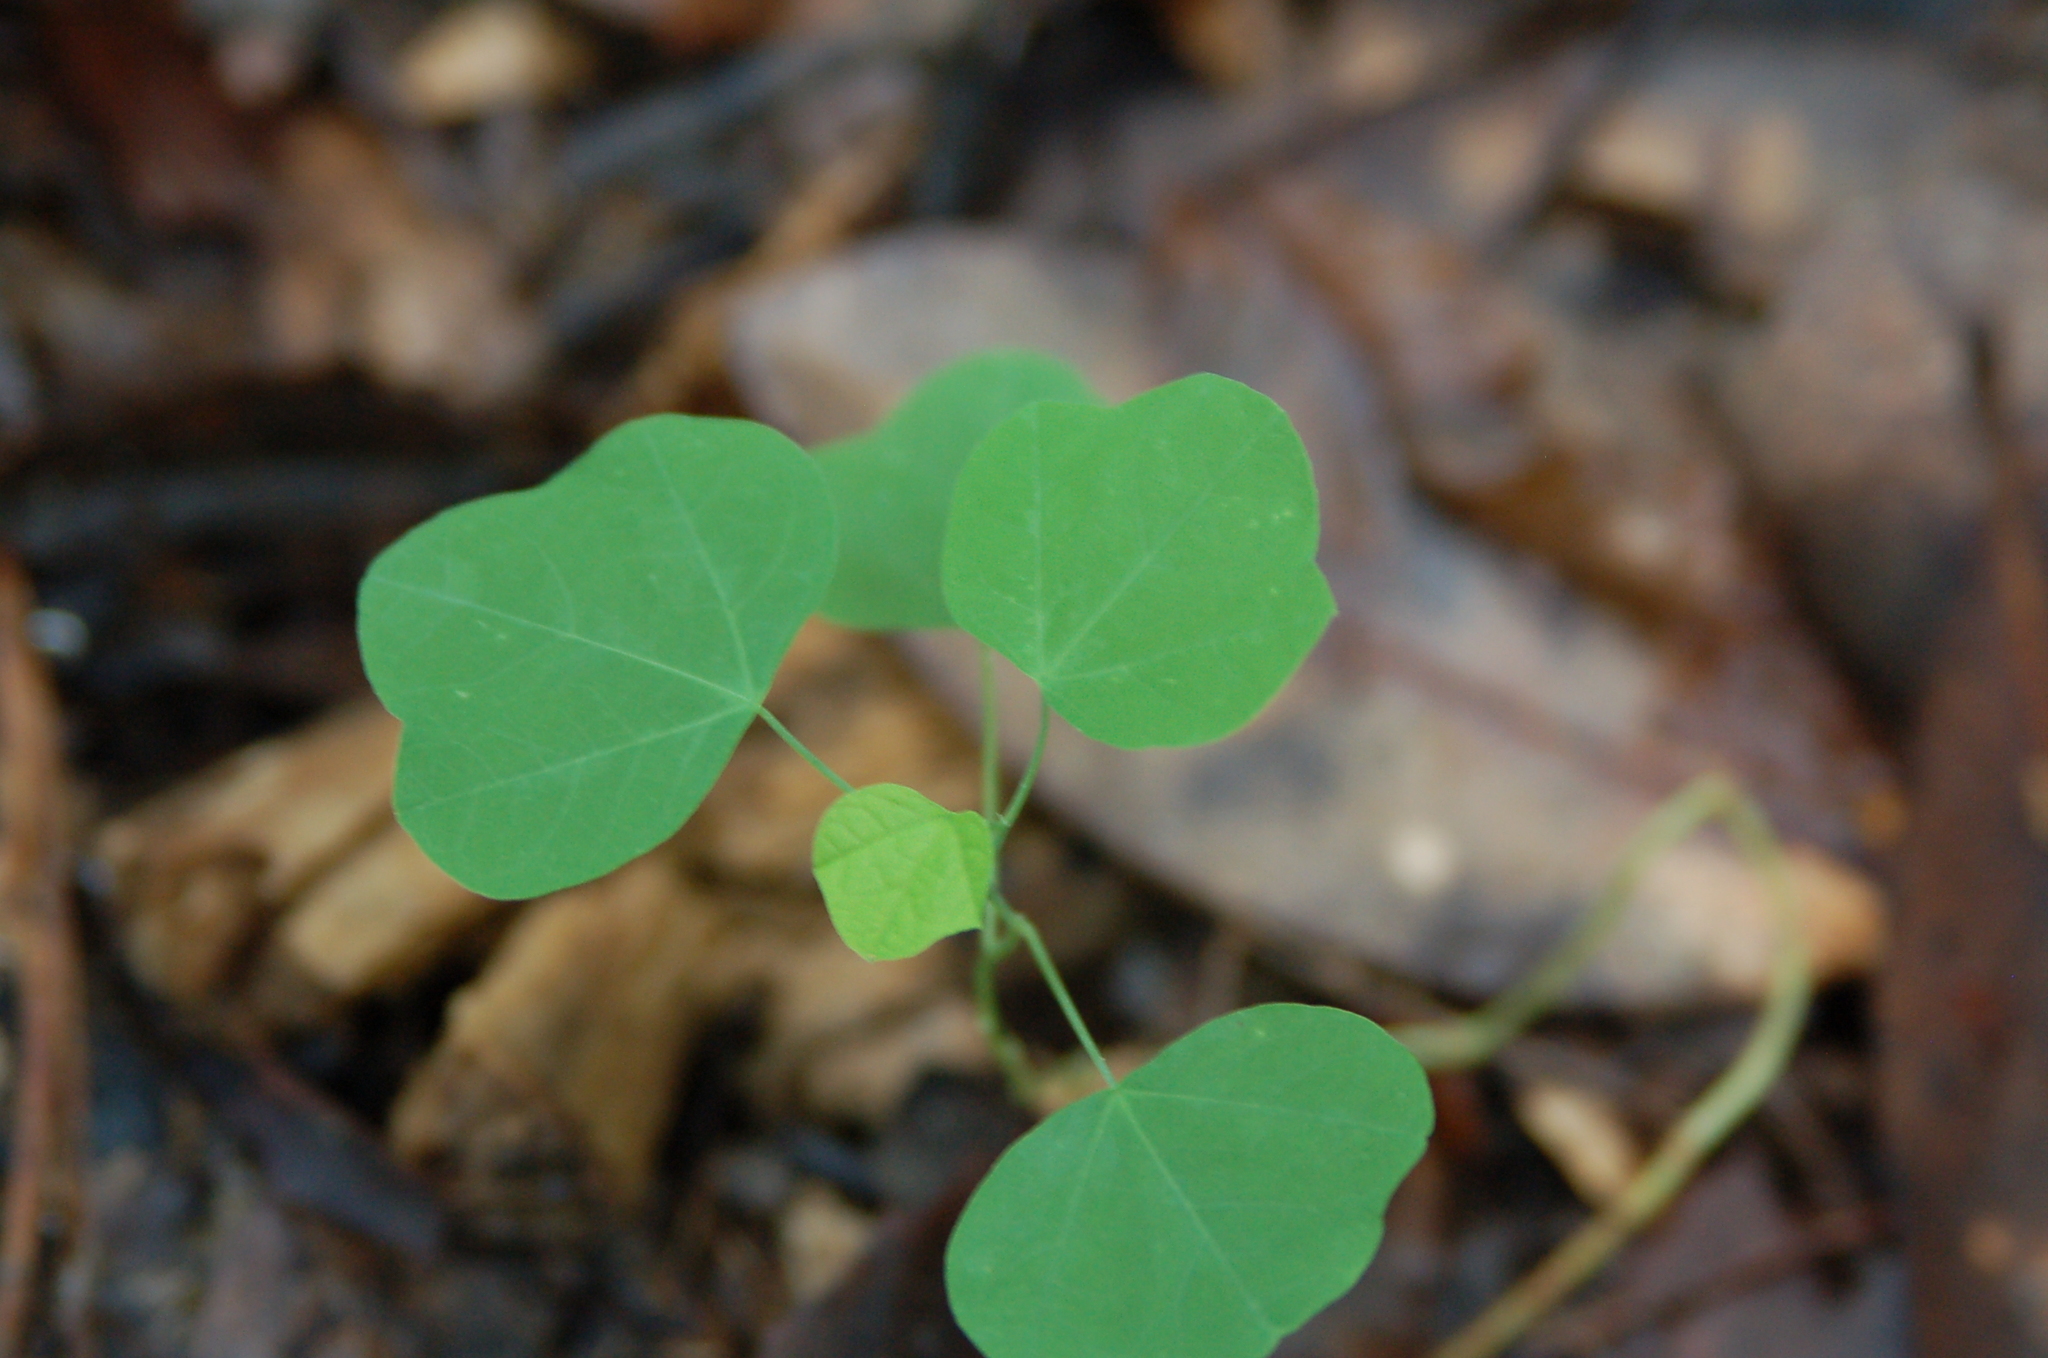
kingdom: Plantae
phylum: Tracheophyta
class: Magnoliopsida
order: Malpighiales
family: Passifloraceae
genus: Passiflora
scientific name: Passiflora lutea
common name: Yellow passionflower
